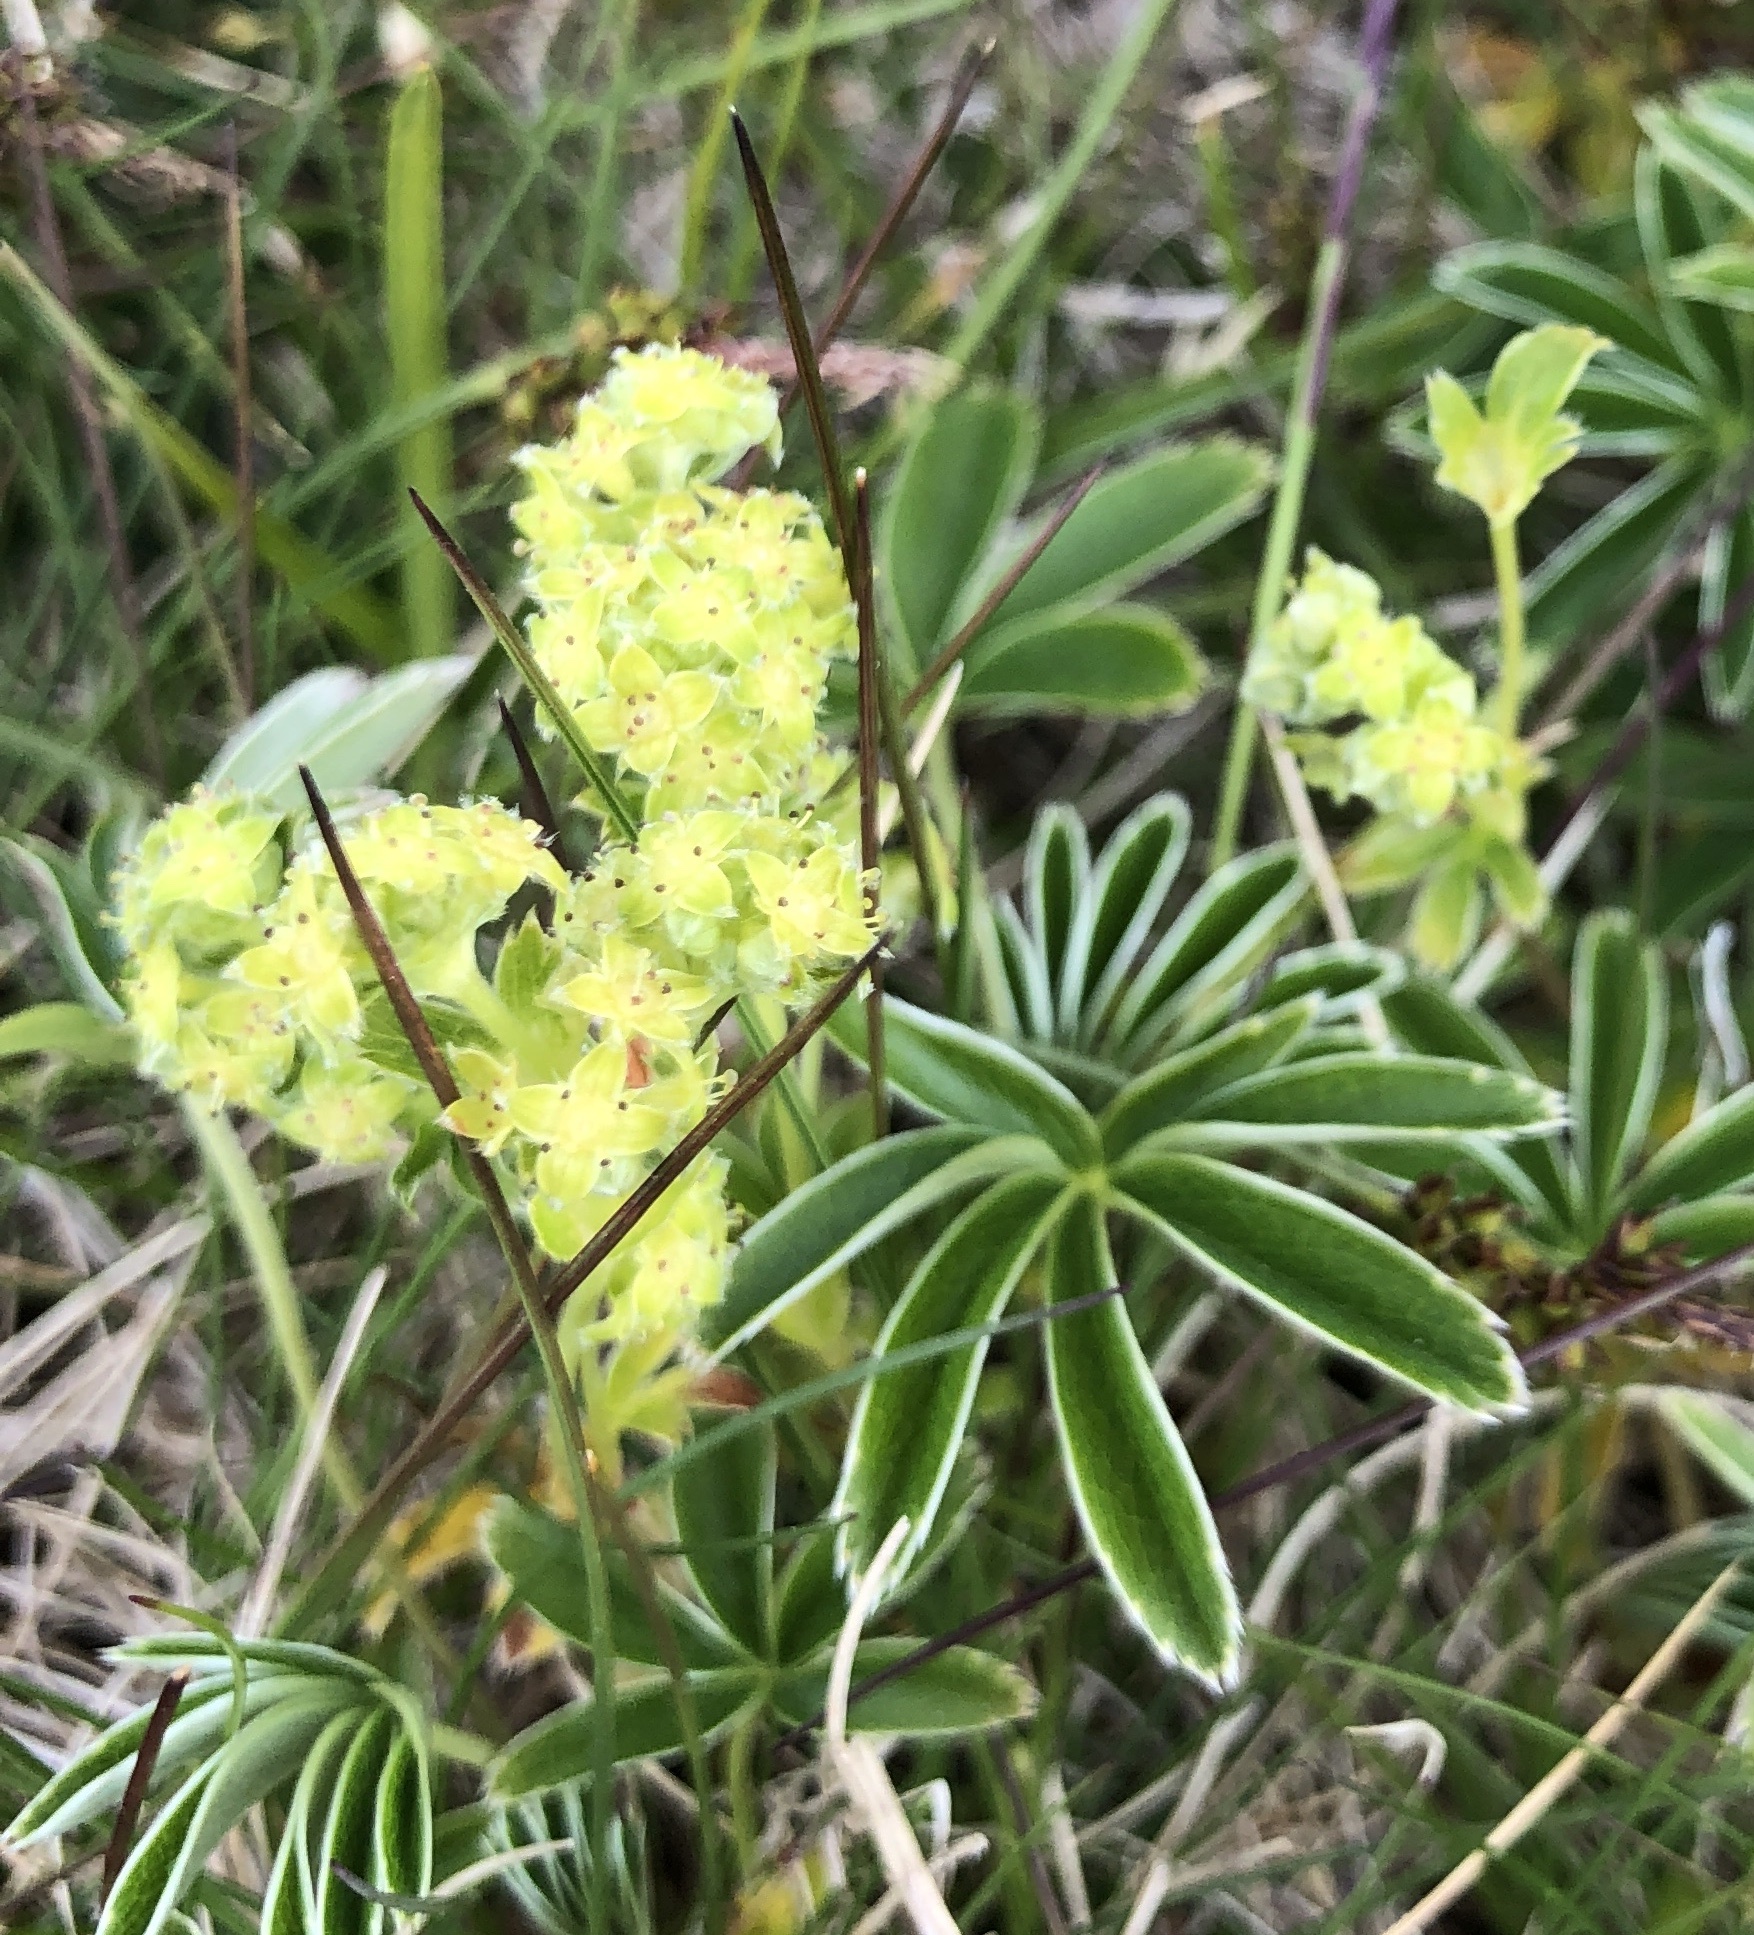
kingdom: Plantae
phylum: Tracheophyta
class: Magnoliopsida
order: Rosales
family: Rosaceae
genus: Alchemilla
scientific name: Alchemilla alpina
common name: Alpine lady's-mantle
